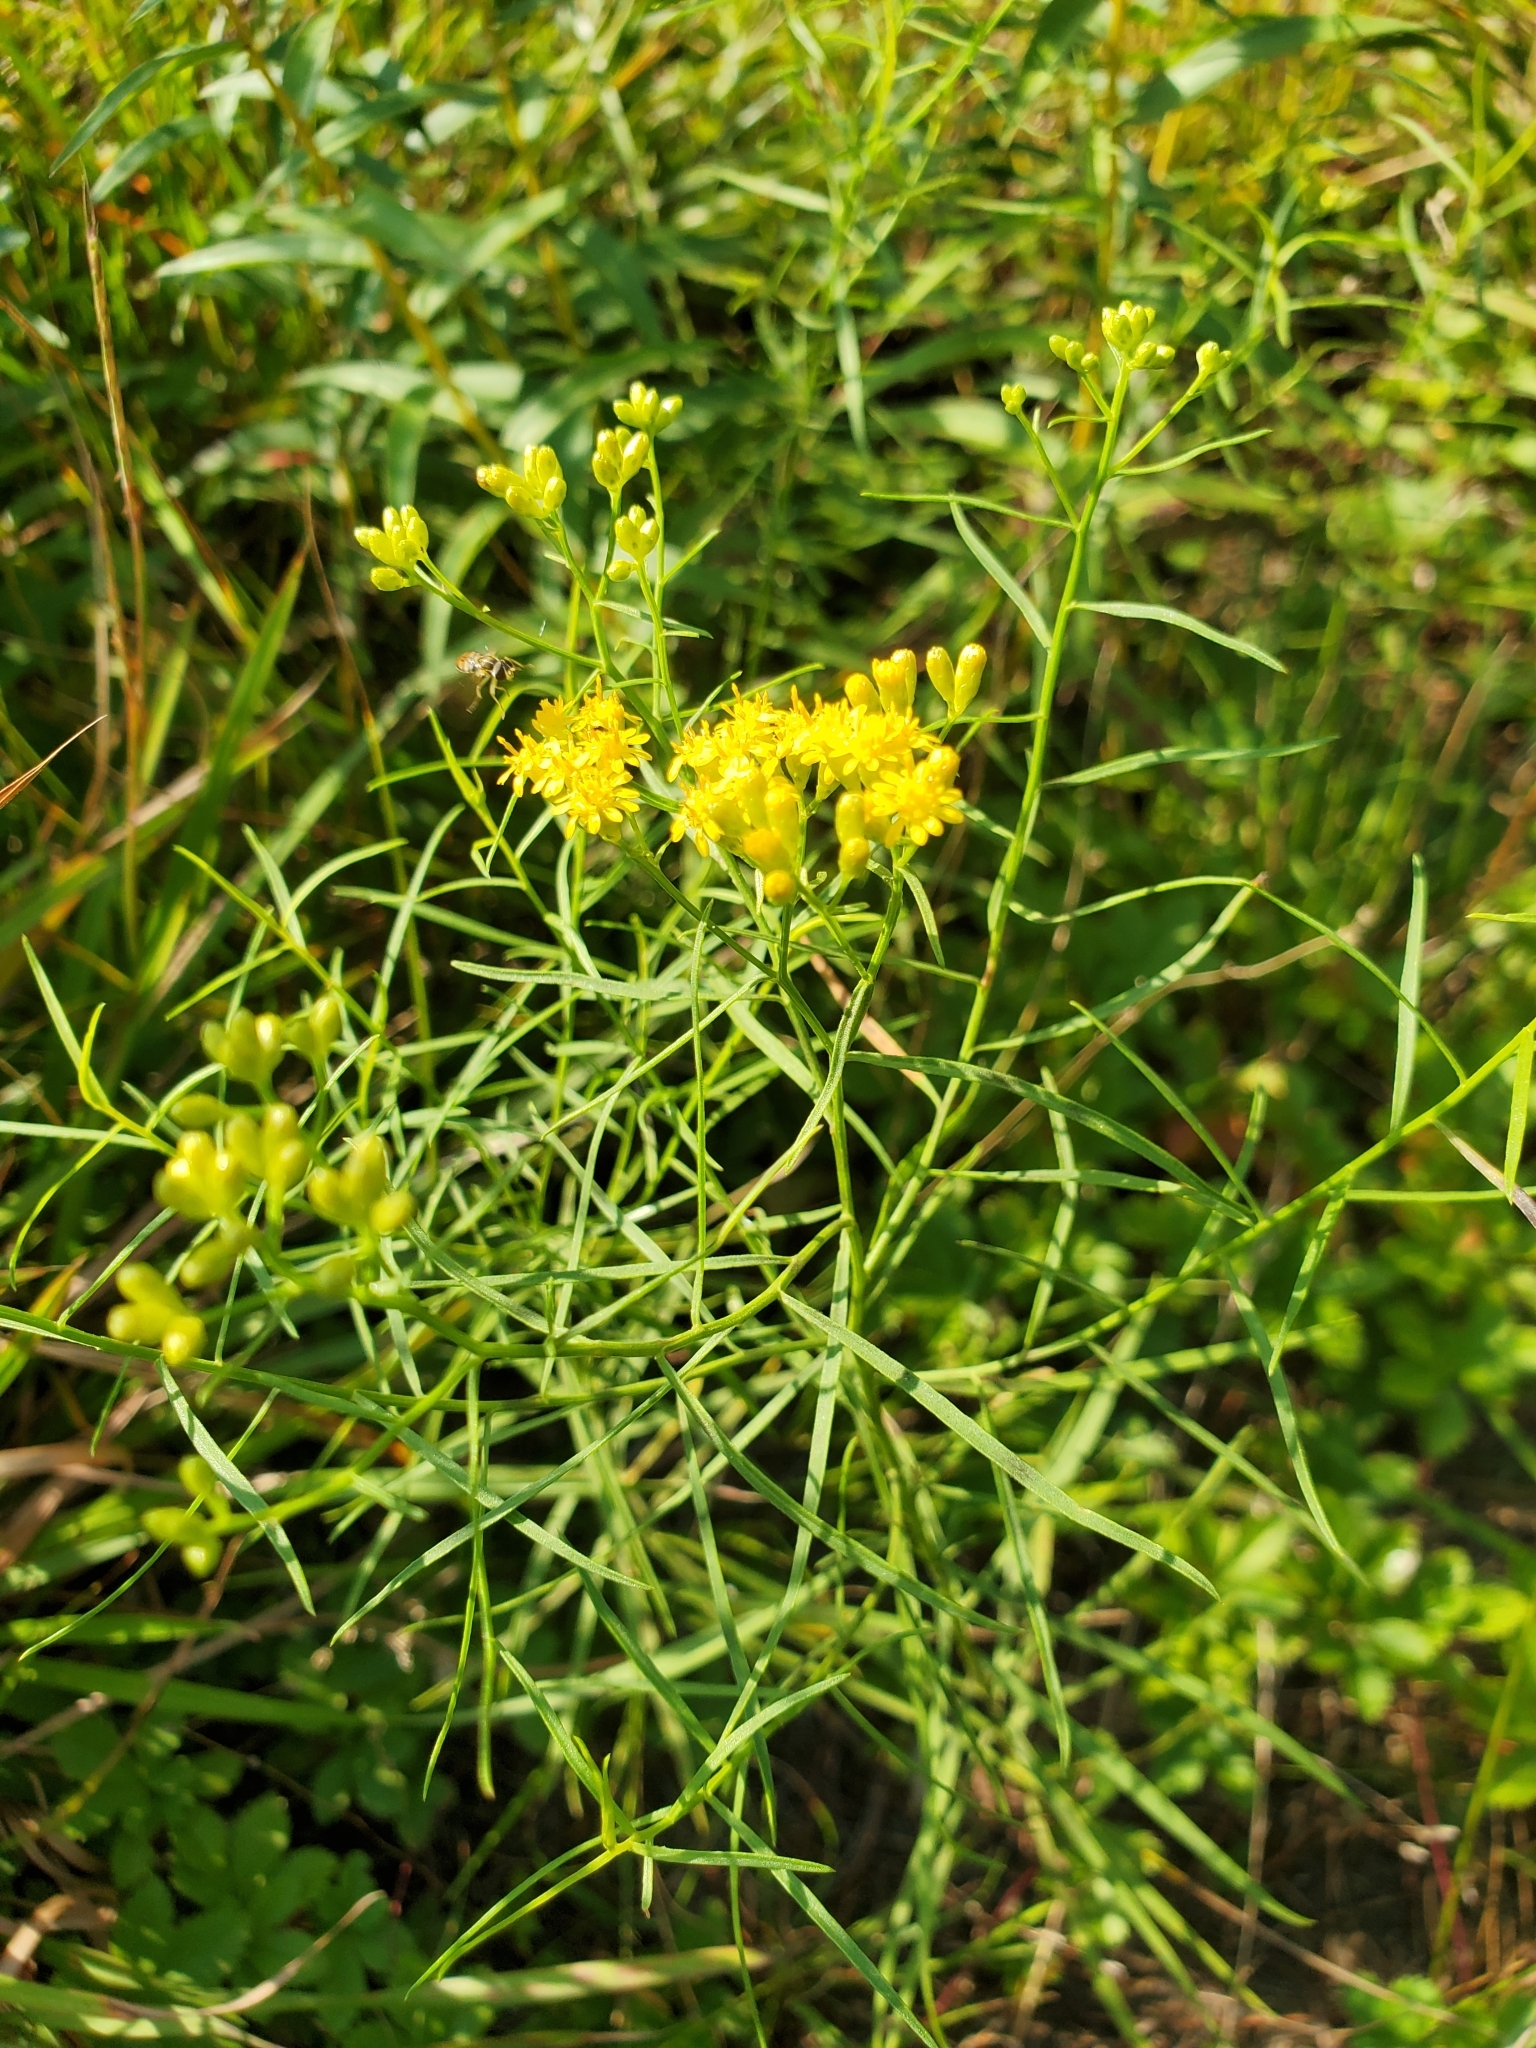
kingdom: Plantae
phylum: Tracheophyta
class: Magnoliopsida
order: Asterales
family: Asteraceae
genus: Euthamia
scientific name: Euthamia caroliniana
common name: Coastal plain goldentop
